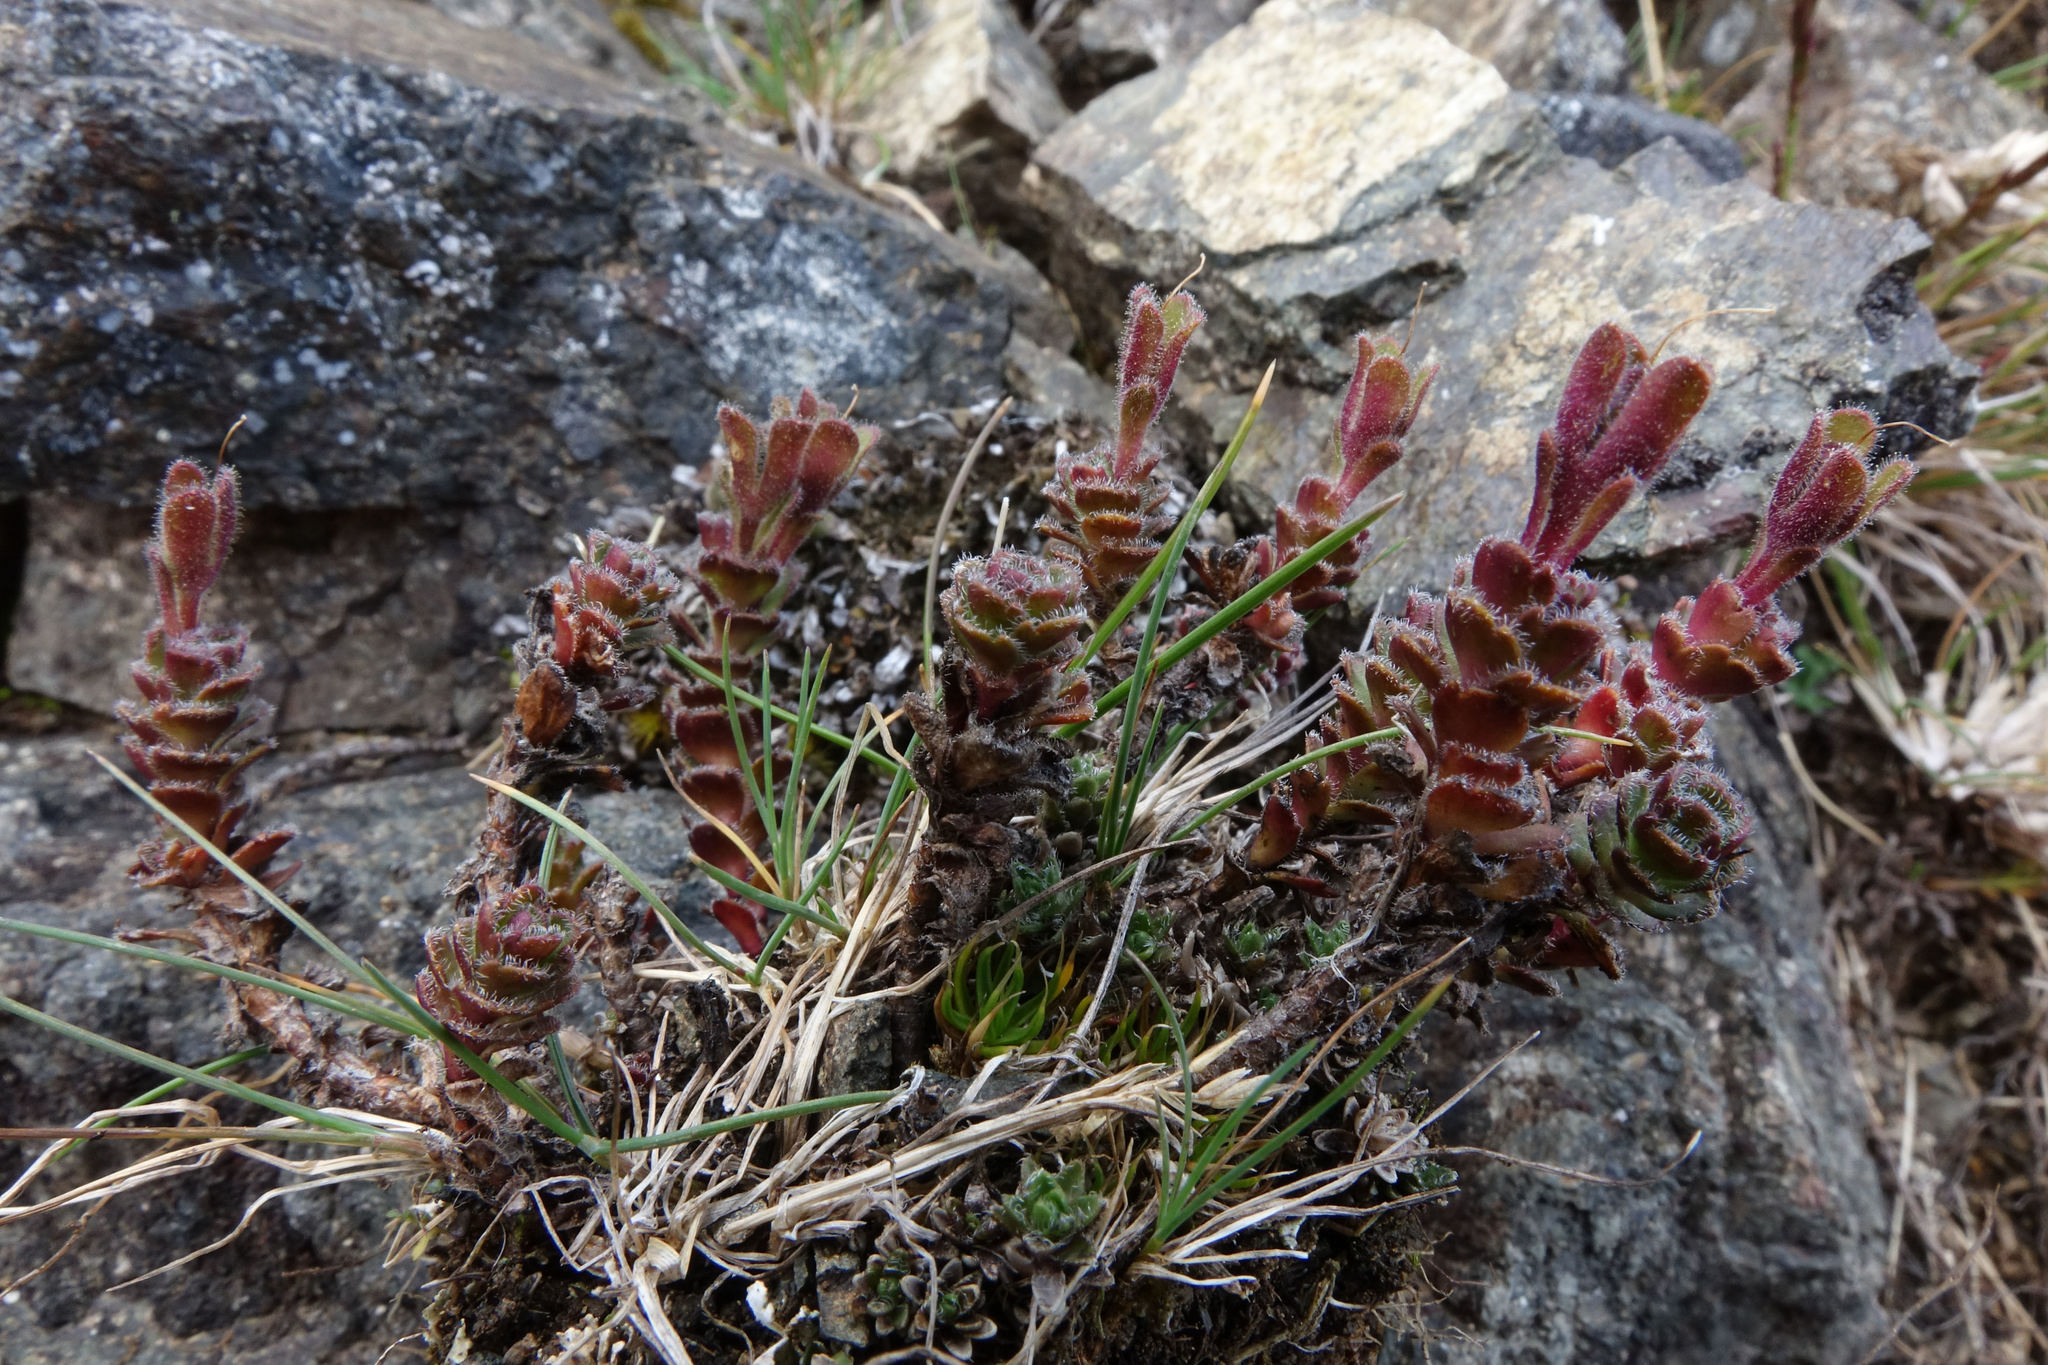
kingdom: Plantae
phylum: Tracheophyta
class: Magnoliopsida
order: Lamiales
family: Plantaginaceae
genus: Veronica
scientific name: Veronica spectabilis
